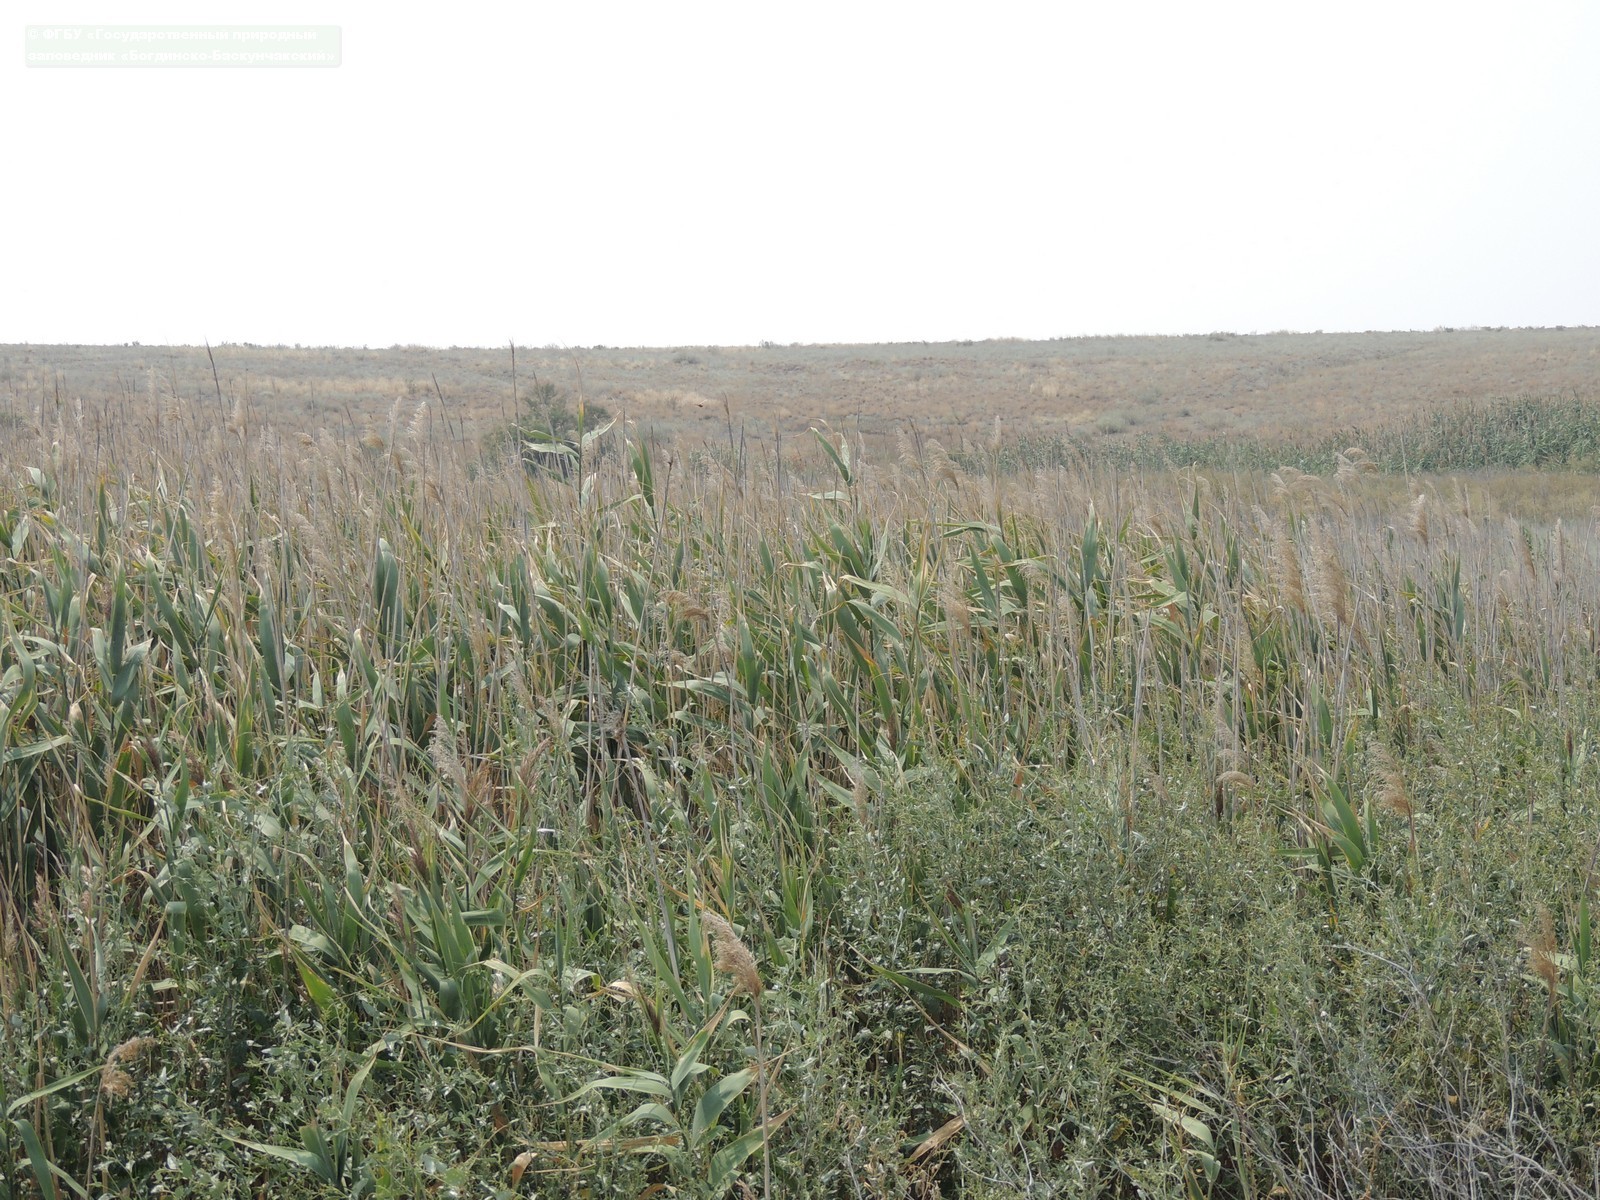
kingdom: Plantae
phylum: Tracheophyta
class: Liliopsida
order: Poales
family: Poaceae
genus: Phragmites
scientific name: Phragmites australis
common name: Common reed
